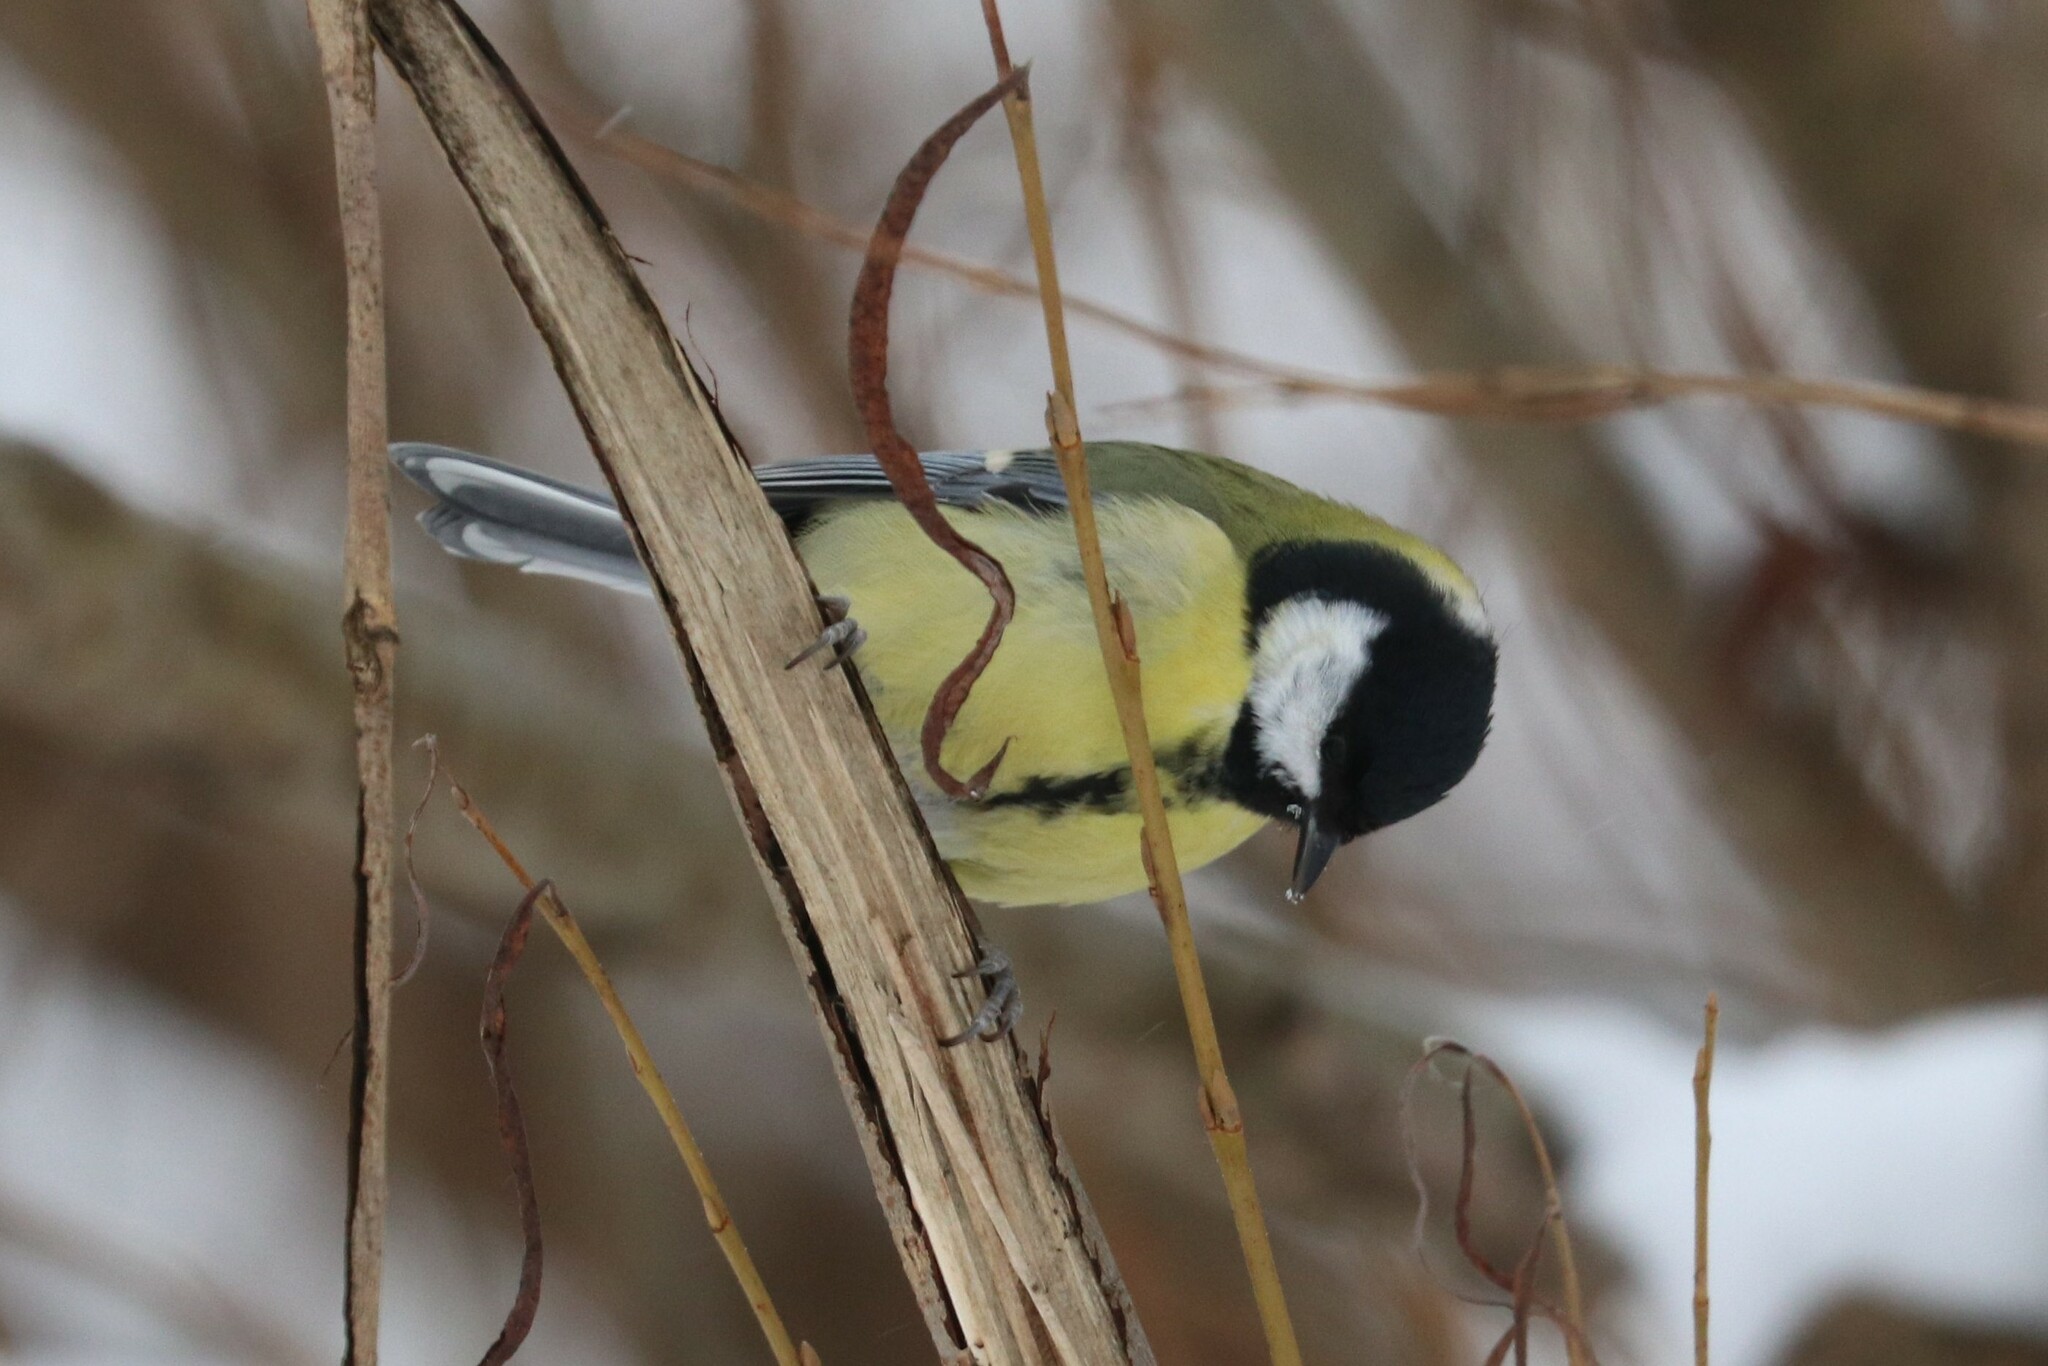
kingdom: Animalia
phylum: Chordata
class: Aves
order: Passeriformes
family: Paridae
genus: Parus
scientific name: Parus major
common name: Great tit
